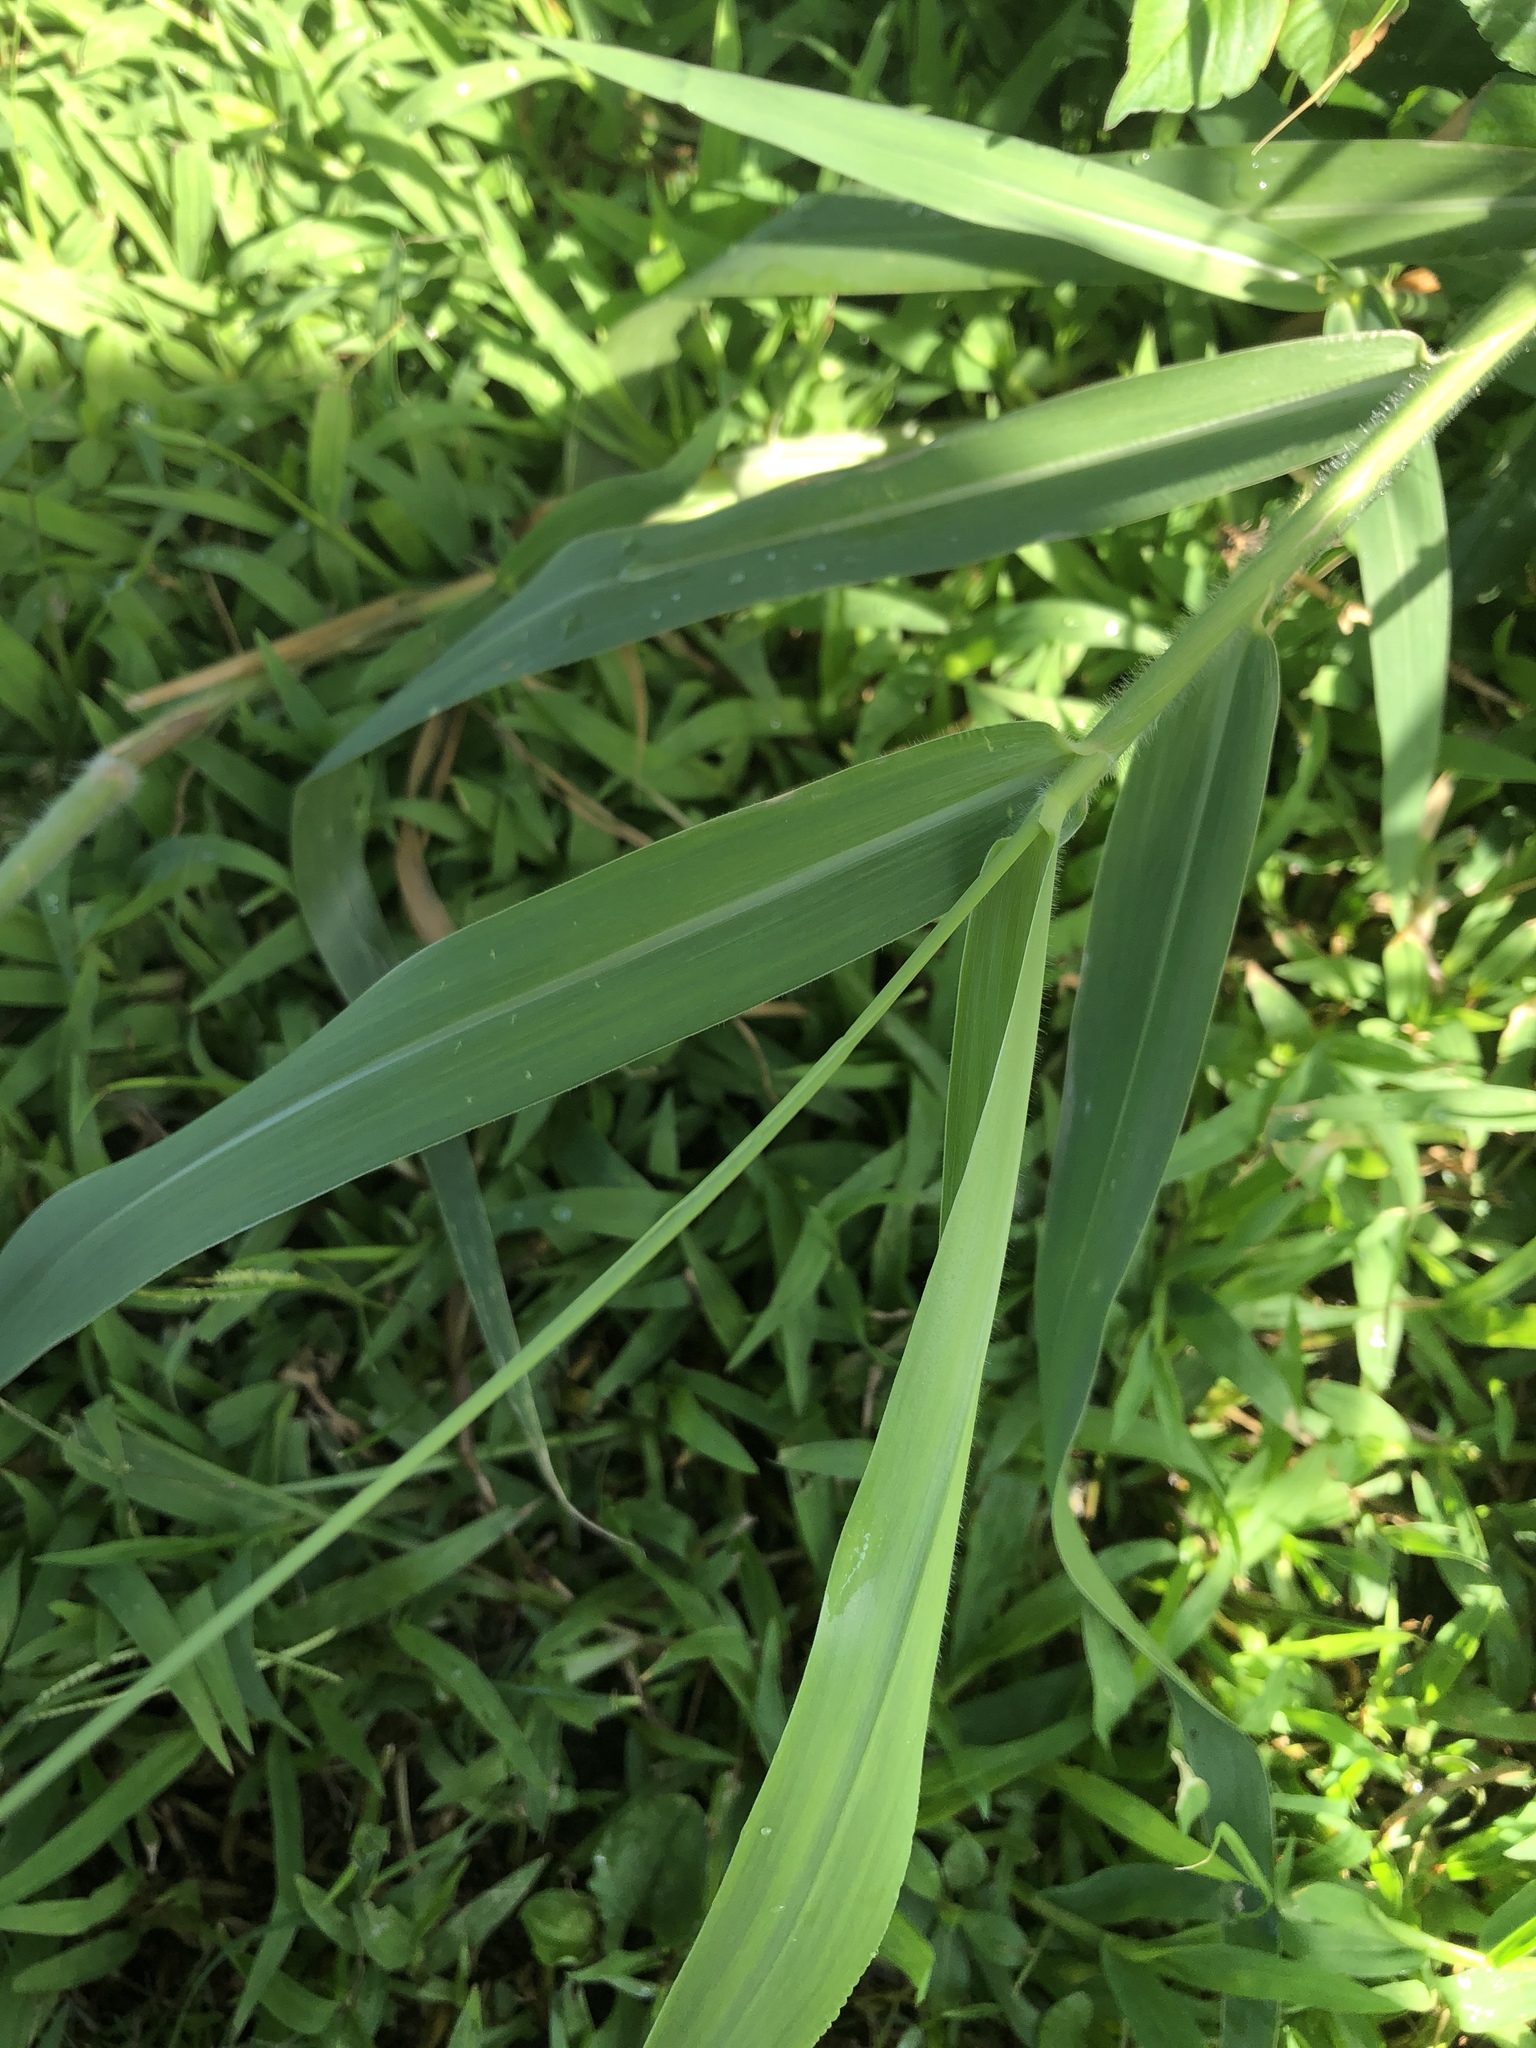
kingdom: Plantae
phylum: Tracheophyta
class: Liliopsida
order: Poales
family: Poaceae
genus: Urochloa
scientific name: Urochloa mutica
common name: Para grass
